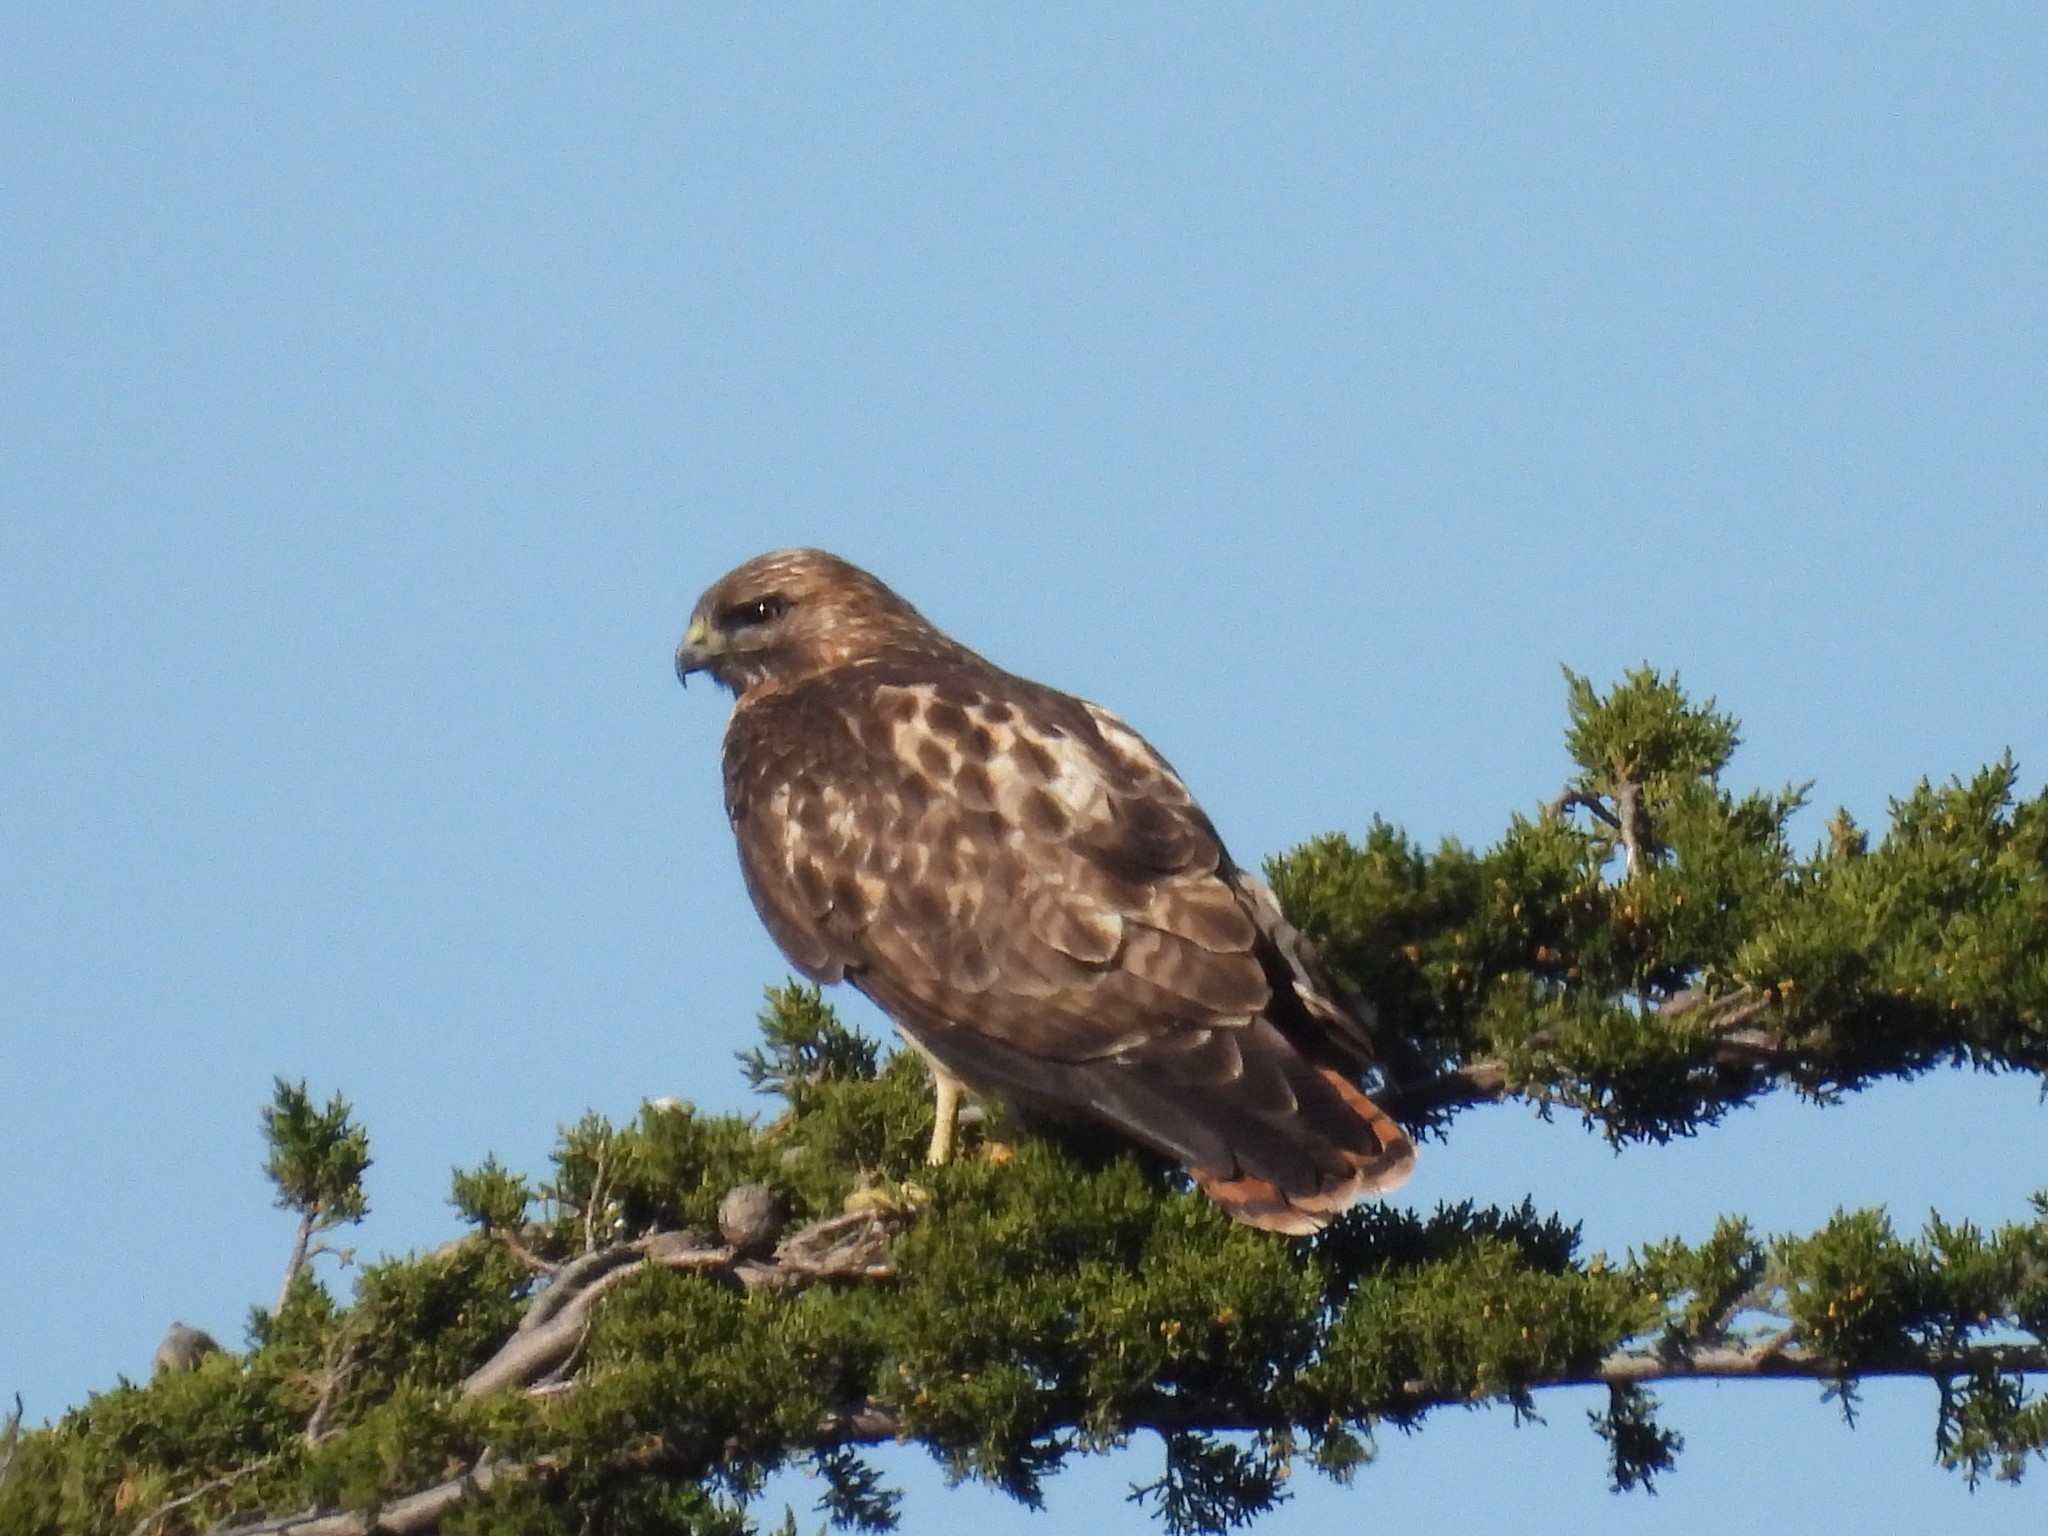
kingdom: Animalia
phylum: Chordata
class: Aves
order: Accipitriformes
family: Accipitridae
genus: Buteo
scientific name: Buteo jamaicensis
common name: Red-tailed hawk
